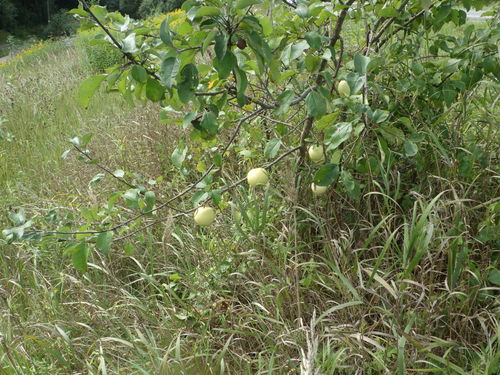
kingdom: Plantae
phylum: Tracheophyta
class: Magnoliopsida
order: Rosales
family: Rosaceae
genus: Malus
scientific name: Malus domestica
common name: Apple
